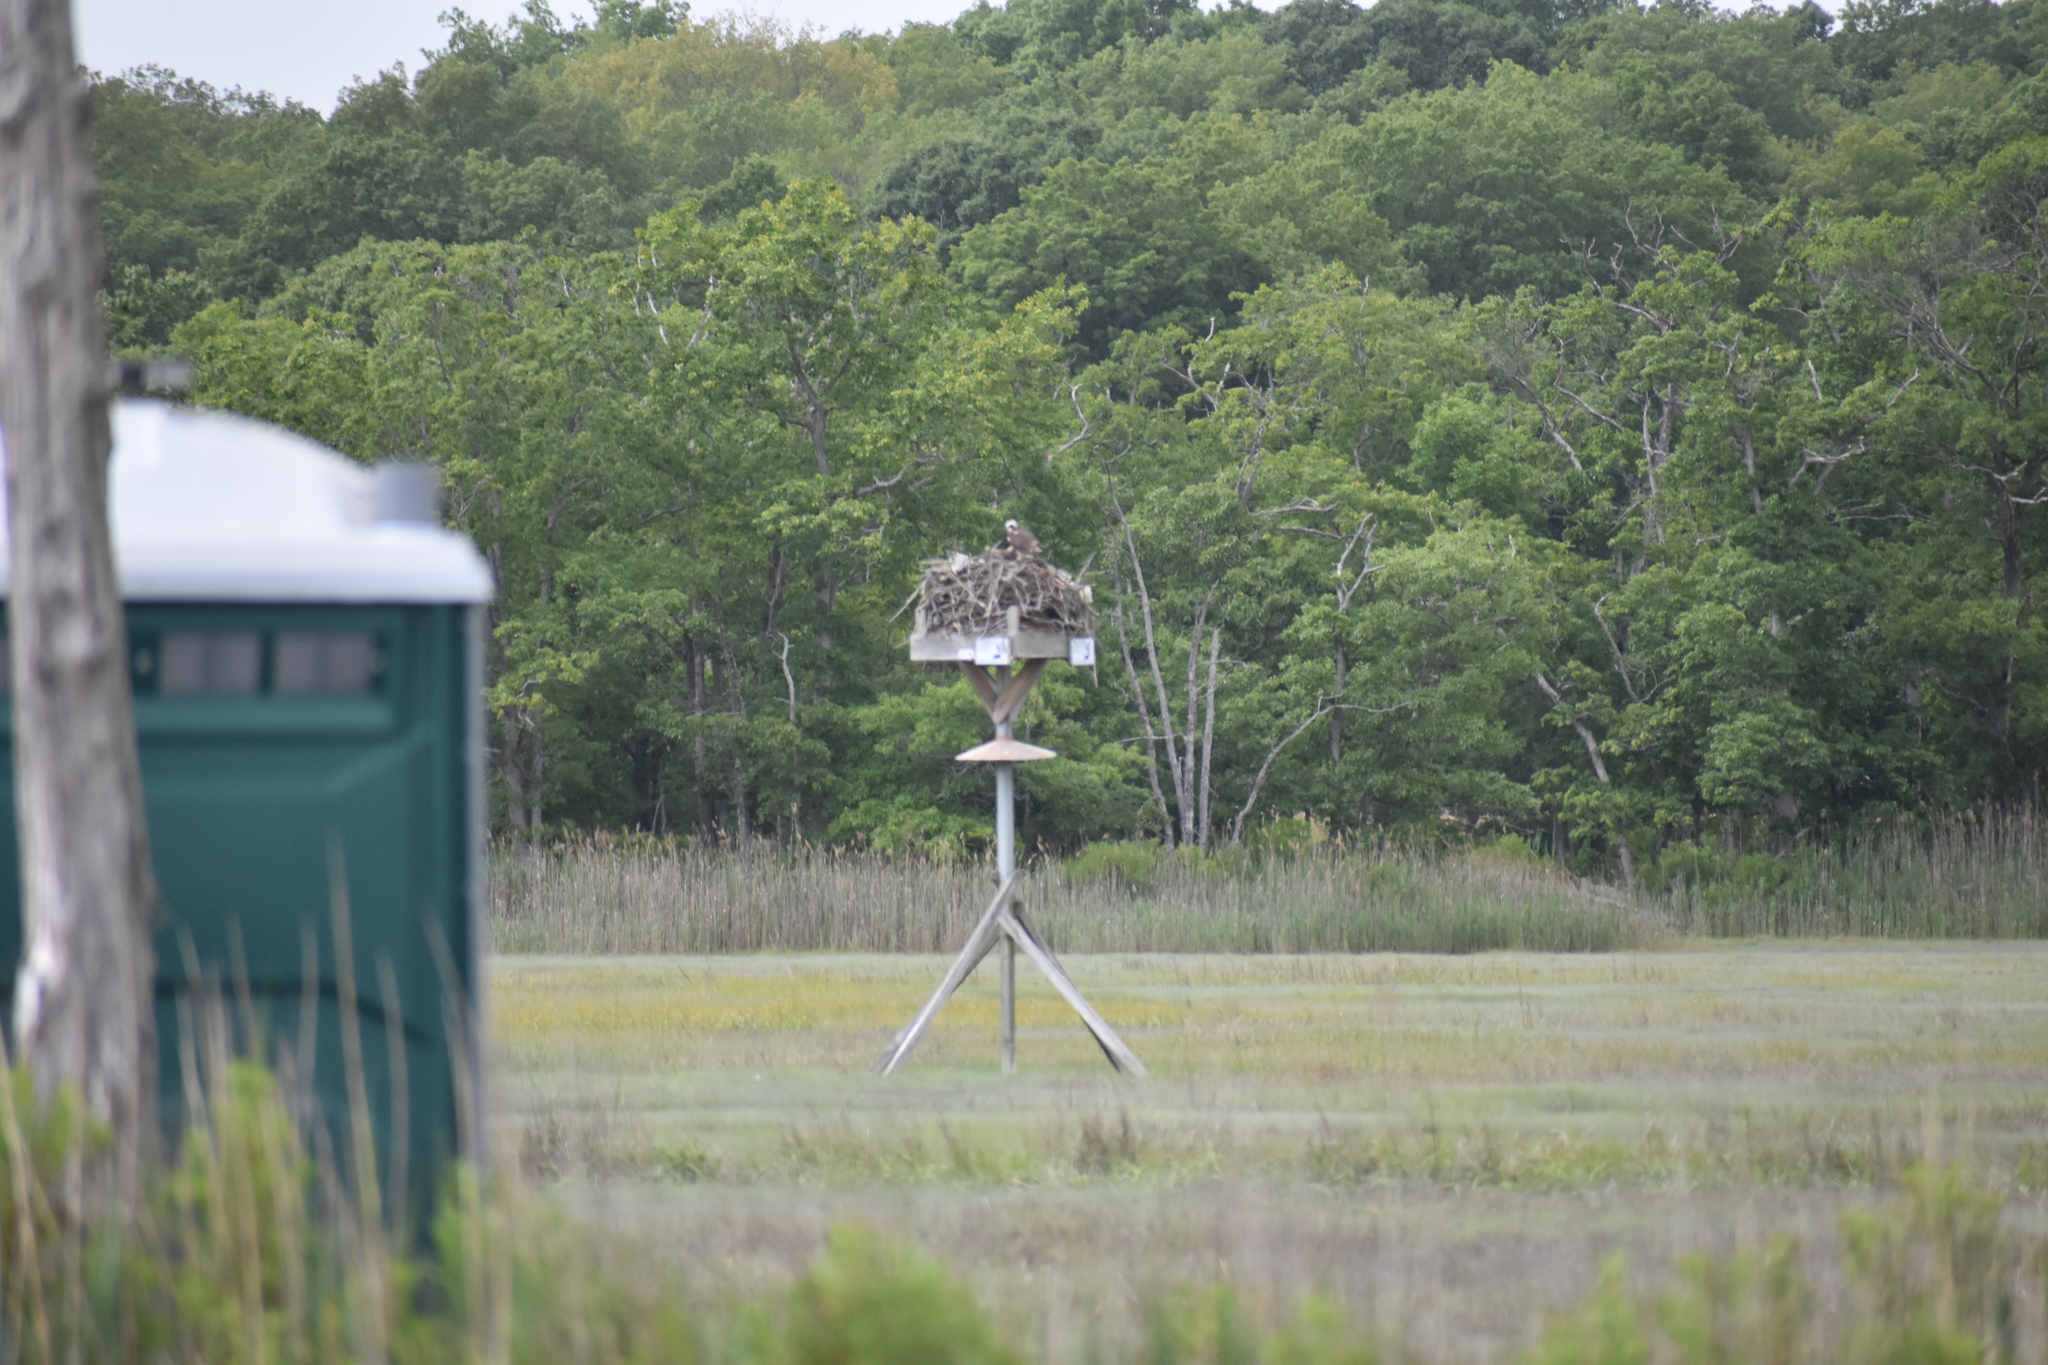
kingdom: Animalia
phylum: Chordata
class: Aves
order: Accipitriformes
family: Pandionidae
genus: Pandion
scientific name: Pandion haliaetus
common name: Osprey
